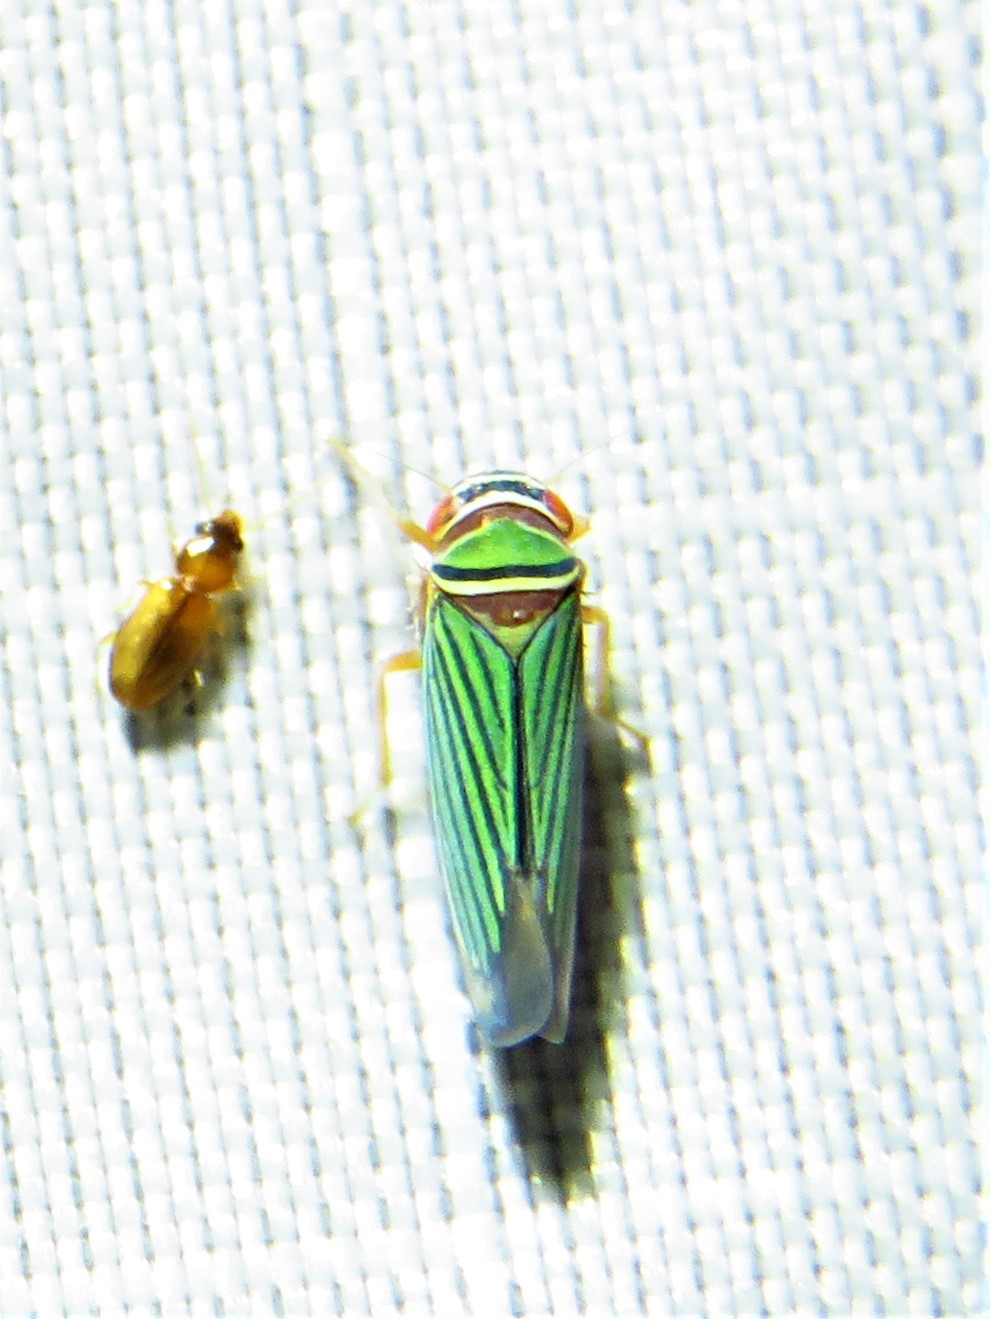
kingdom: Animalia
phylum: Arthropoda
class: Insecta
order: Hemiptera
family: Cicadellidae
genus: Tylozygus
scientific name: Tylozygus fuscolineellus
